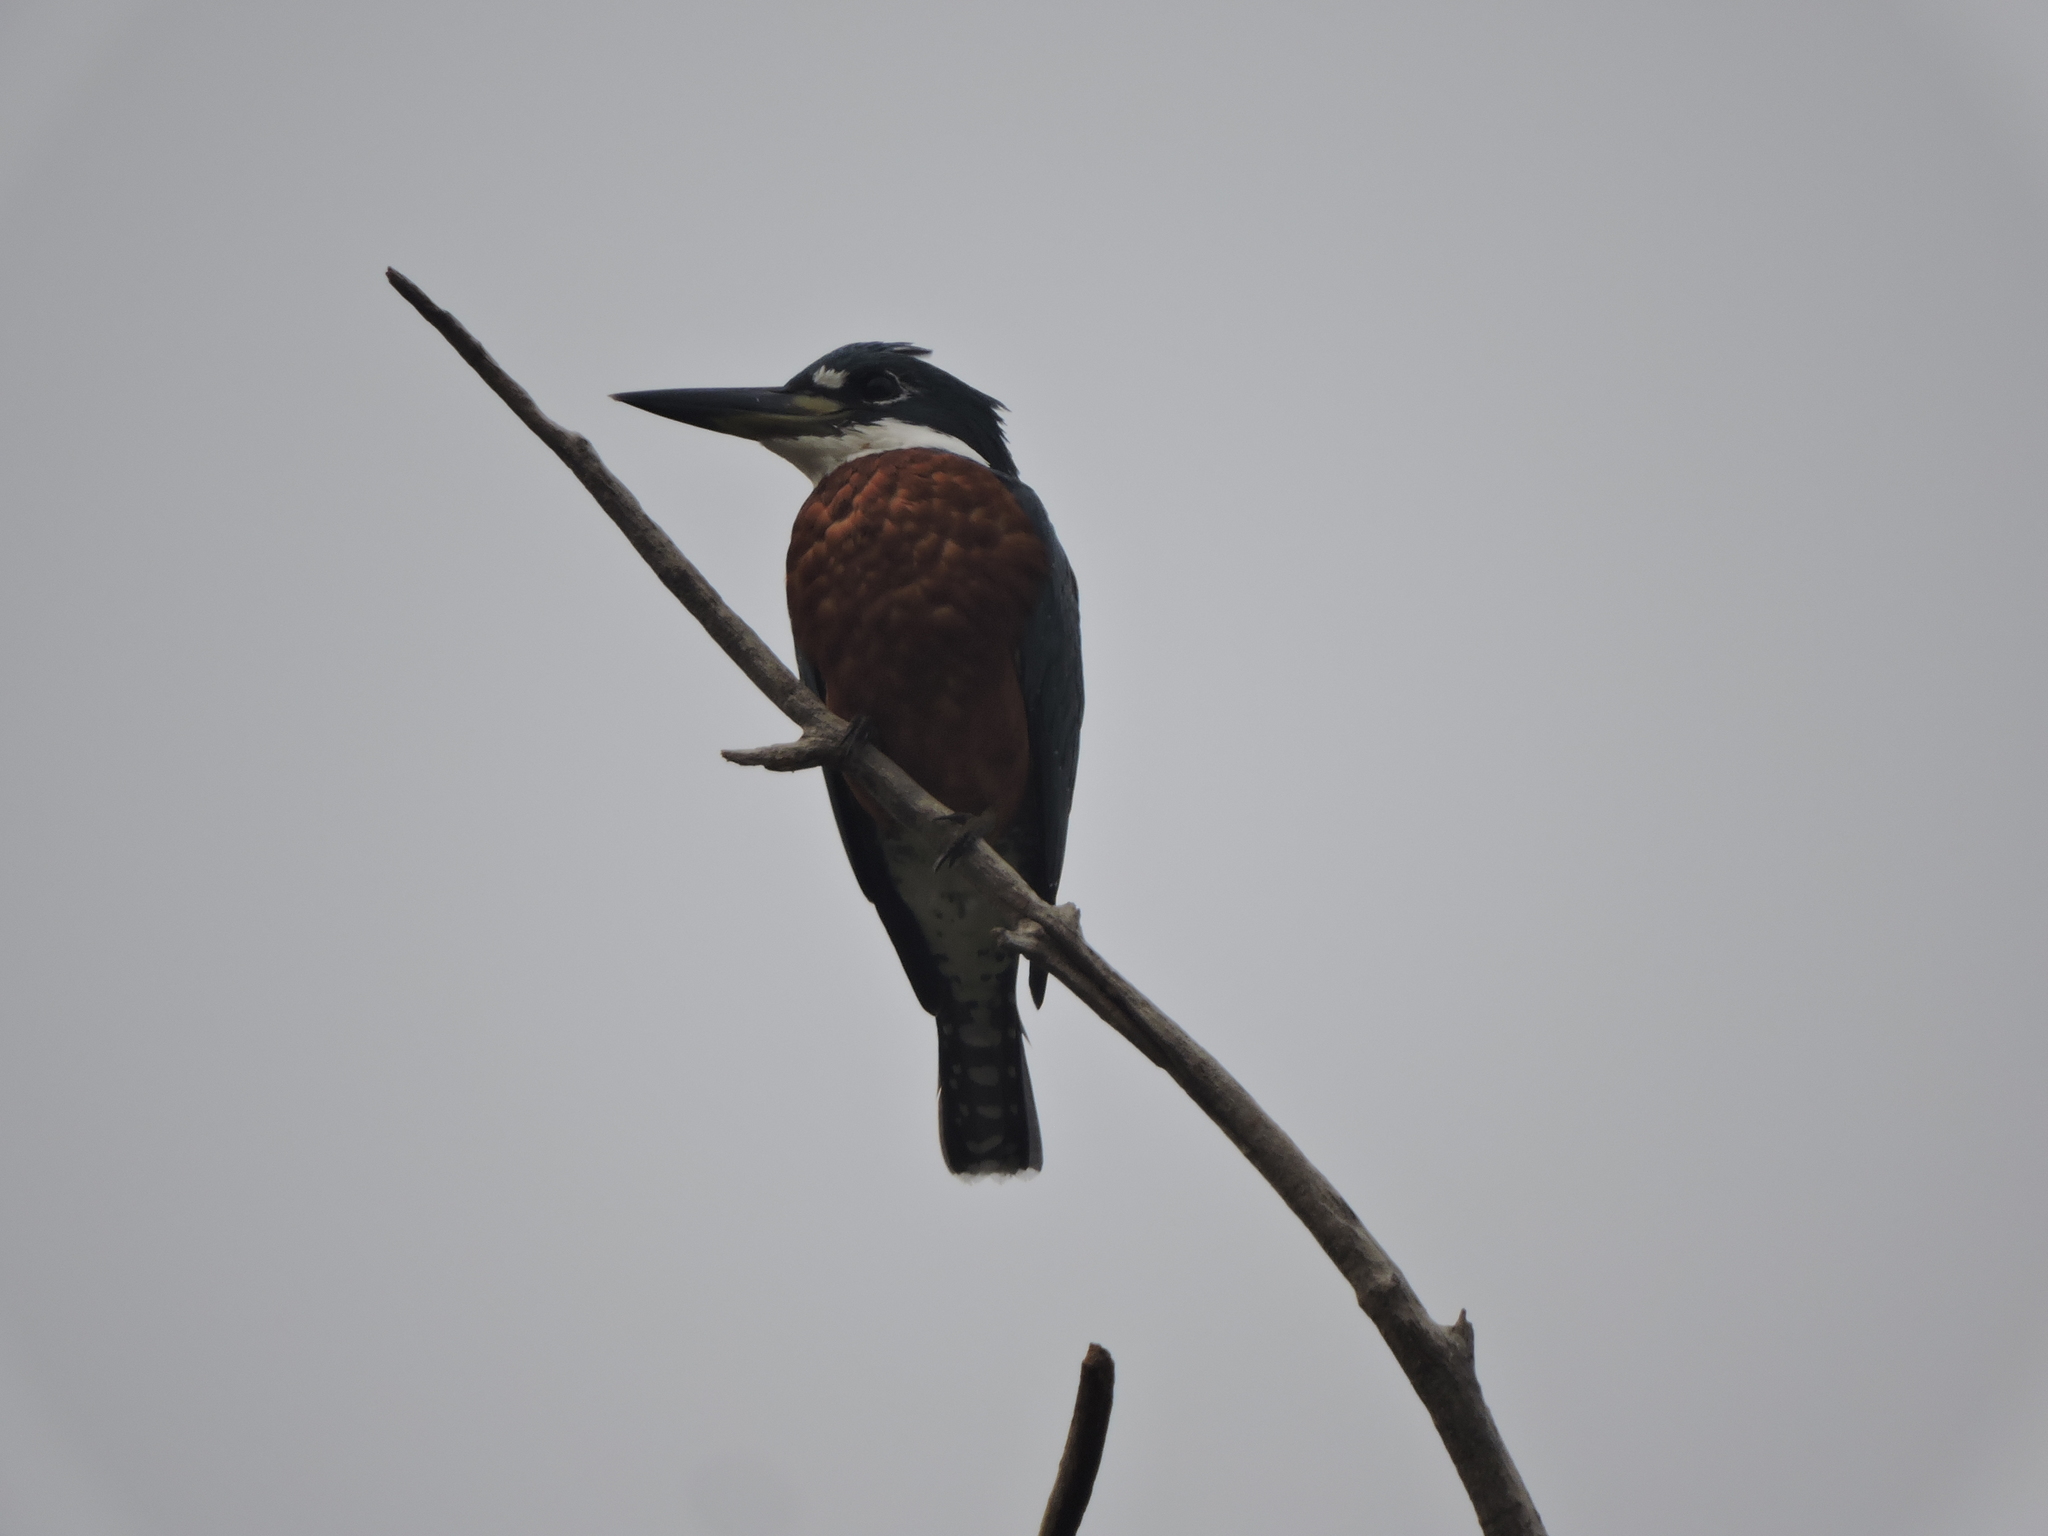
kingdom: Animalia
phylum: Chordata
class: Aves
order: Coraciiformes
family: Alcedinidae
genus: Megaceryle
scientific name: Megaceryle torquata
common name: Ringed kingfisher
